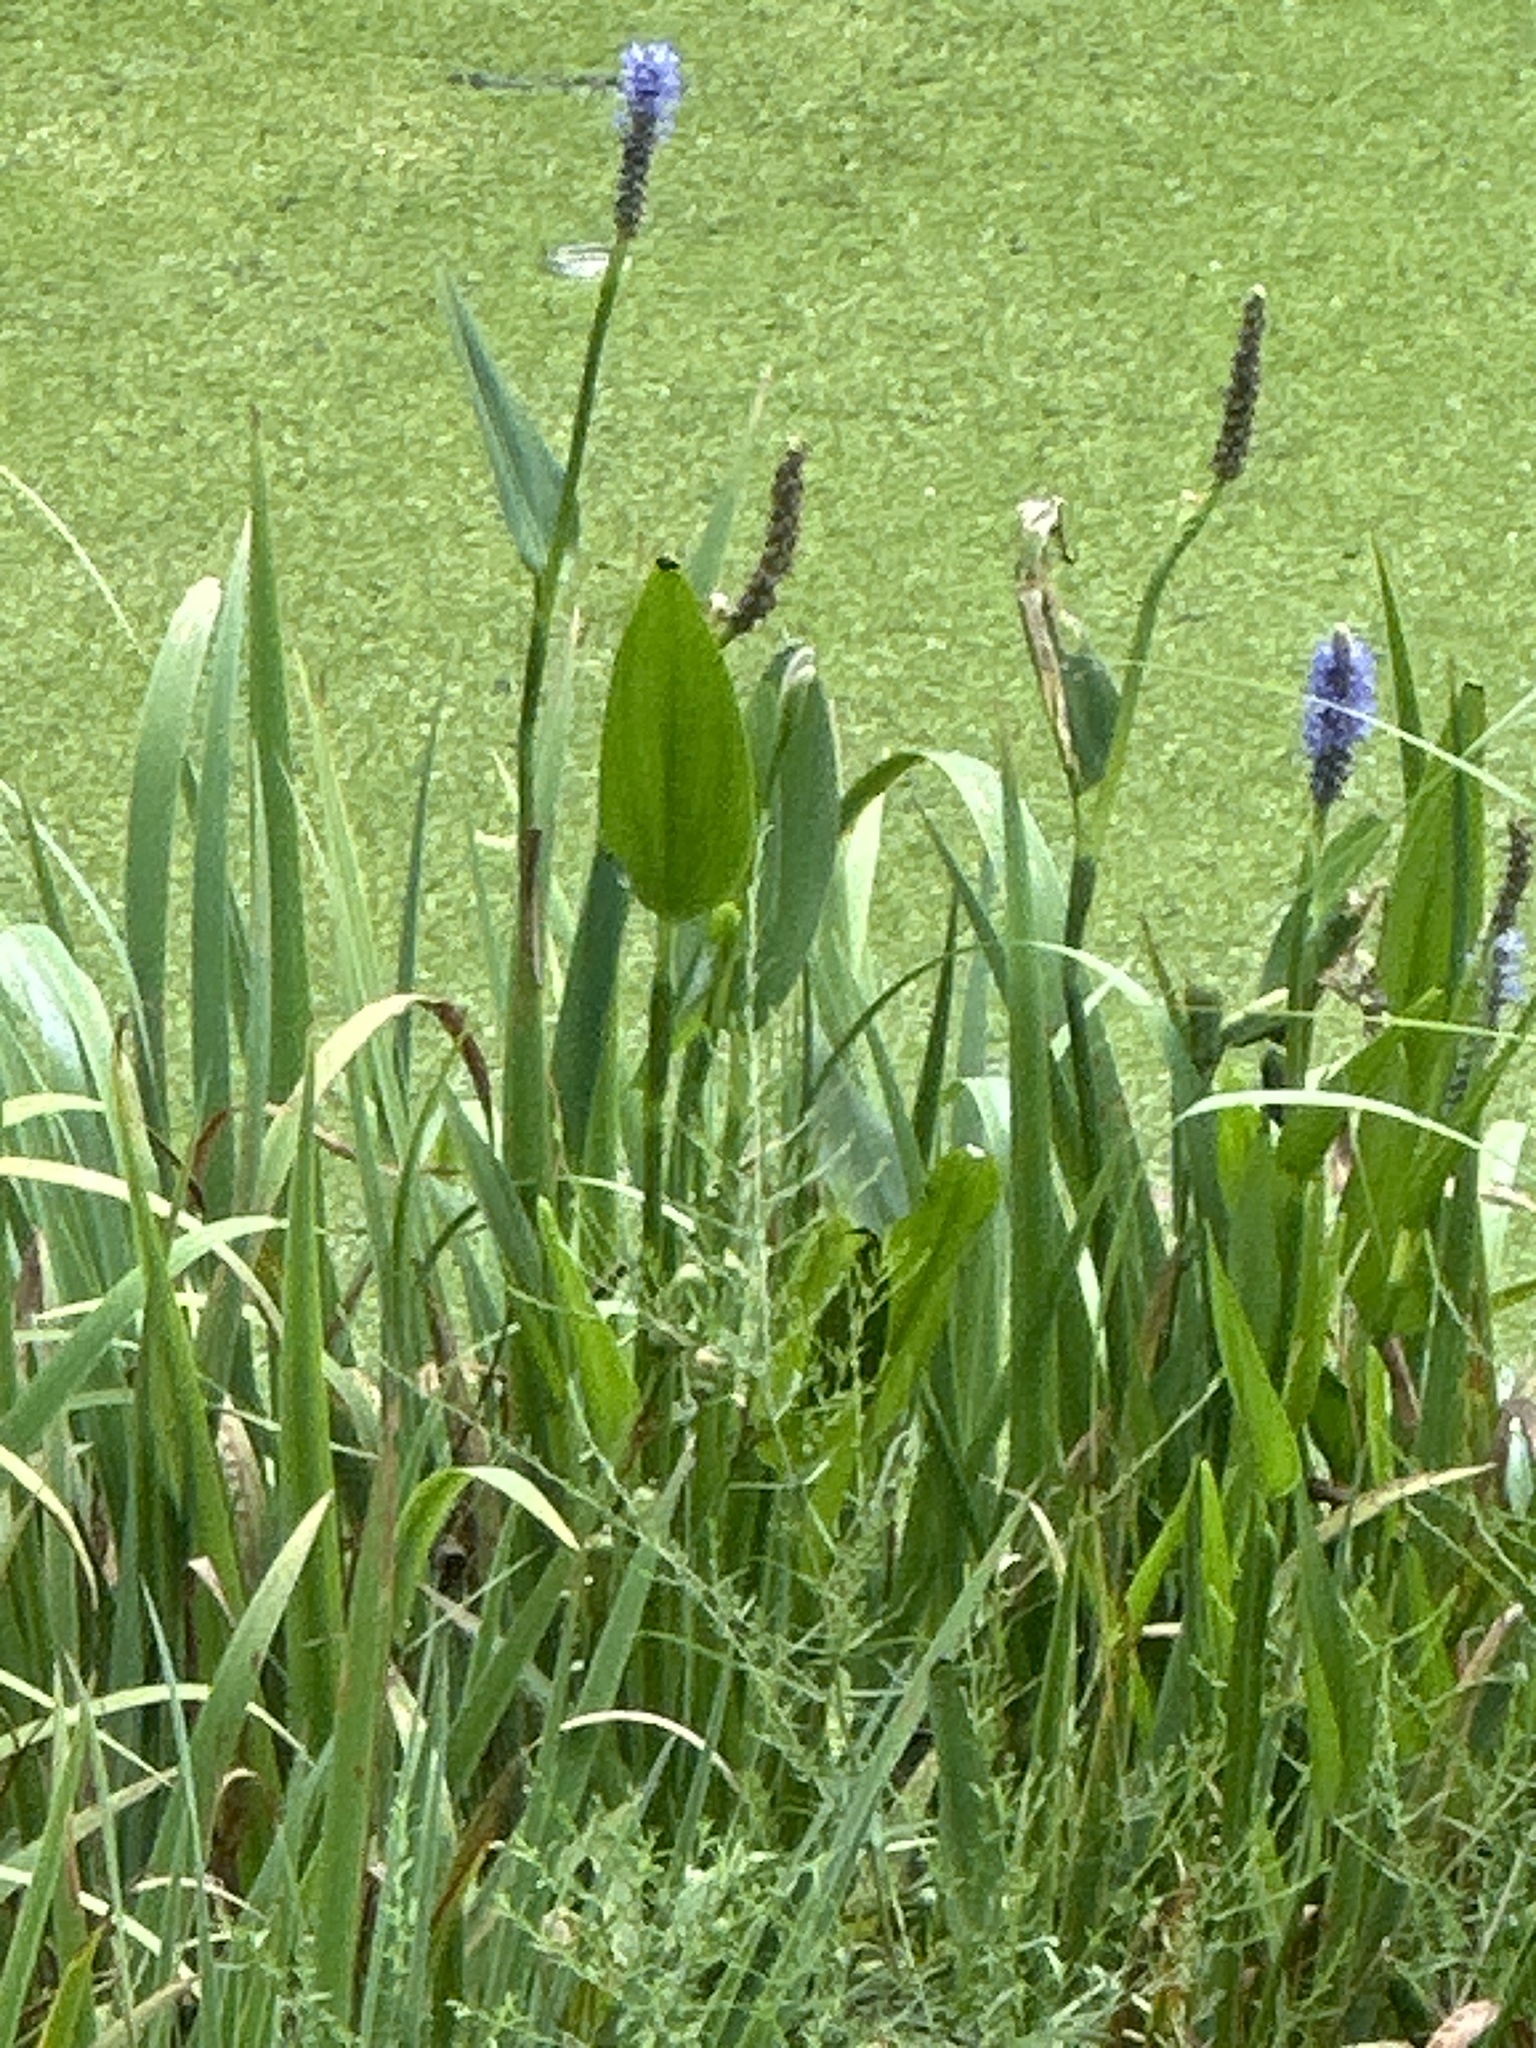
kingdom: Plantae
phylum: Tracheophyta
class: Liliopsida
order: Commelinales
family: Pontederiaceae
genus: Pontederia
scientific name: Pontederia cordata
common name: Pickerelweed
